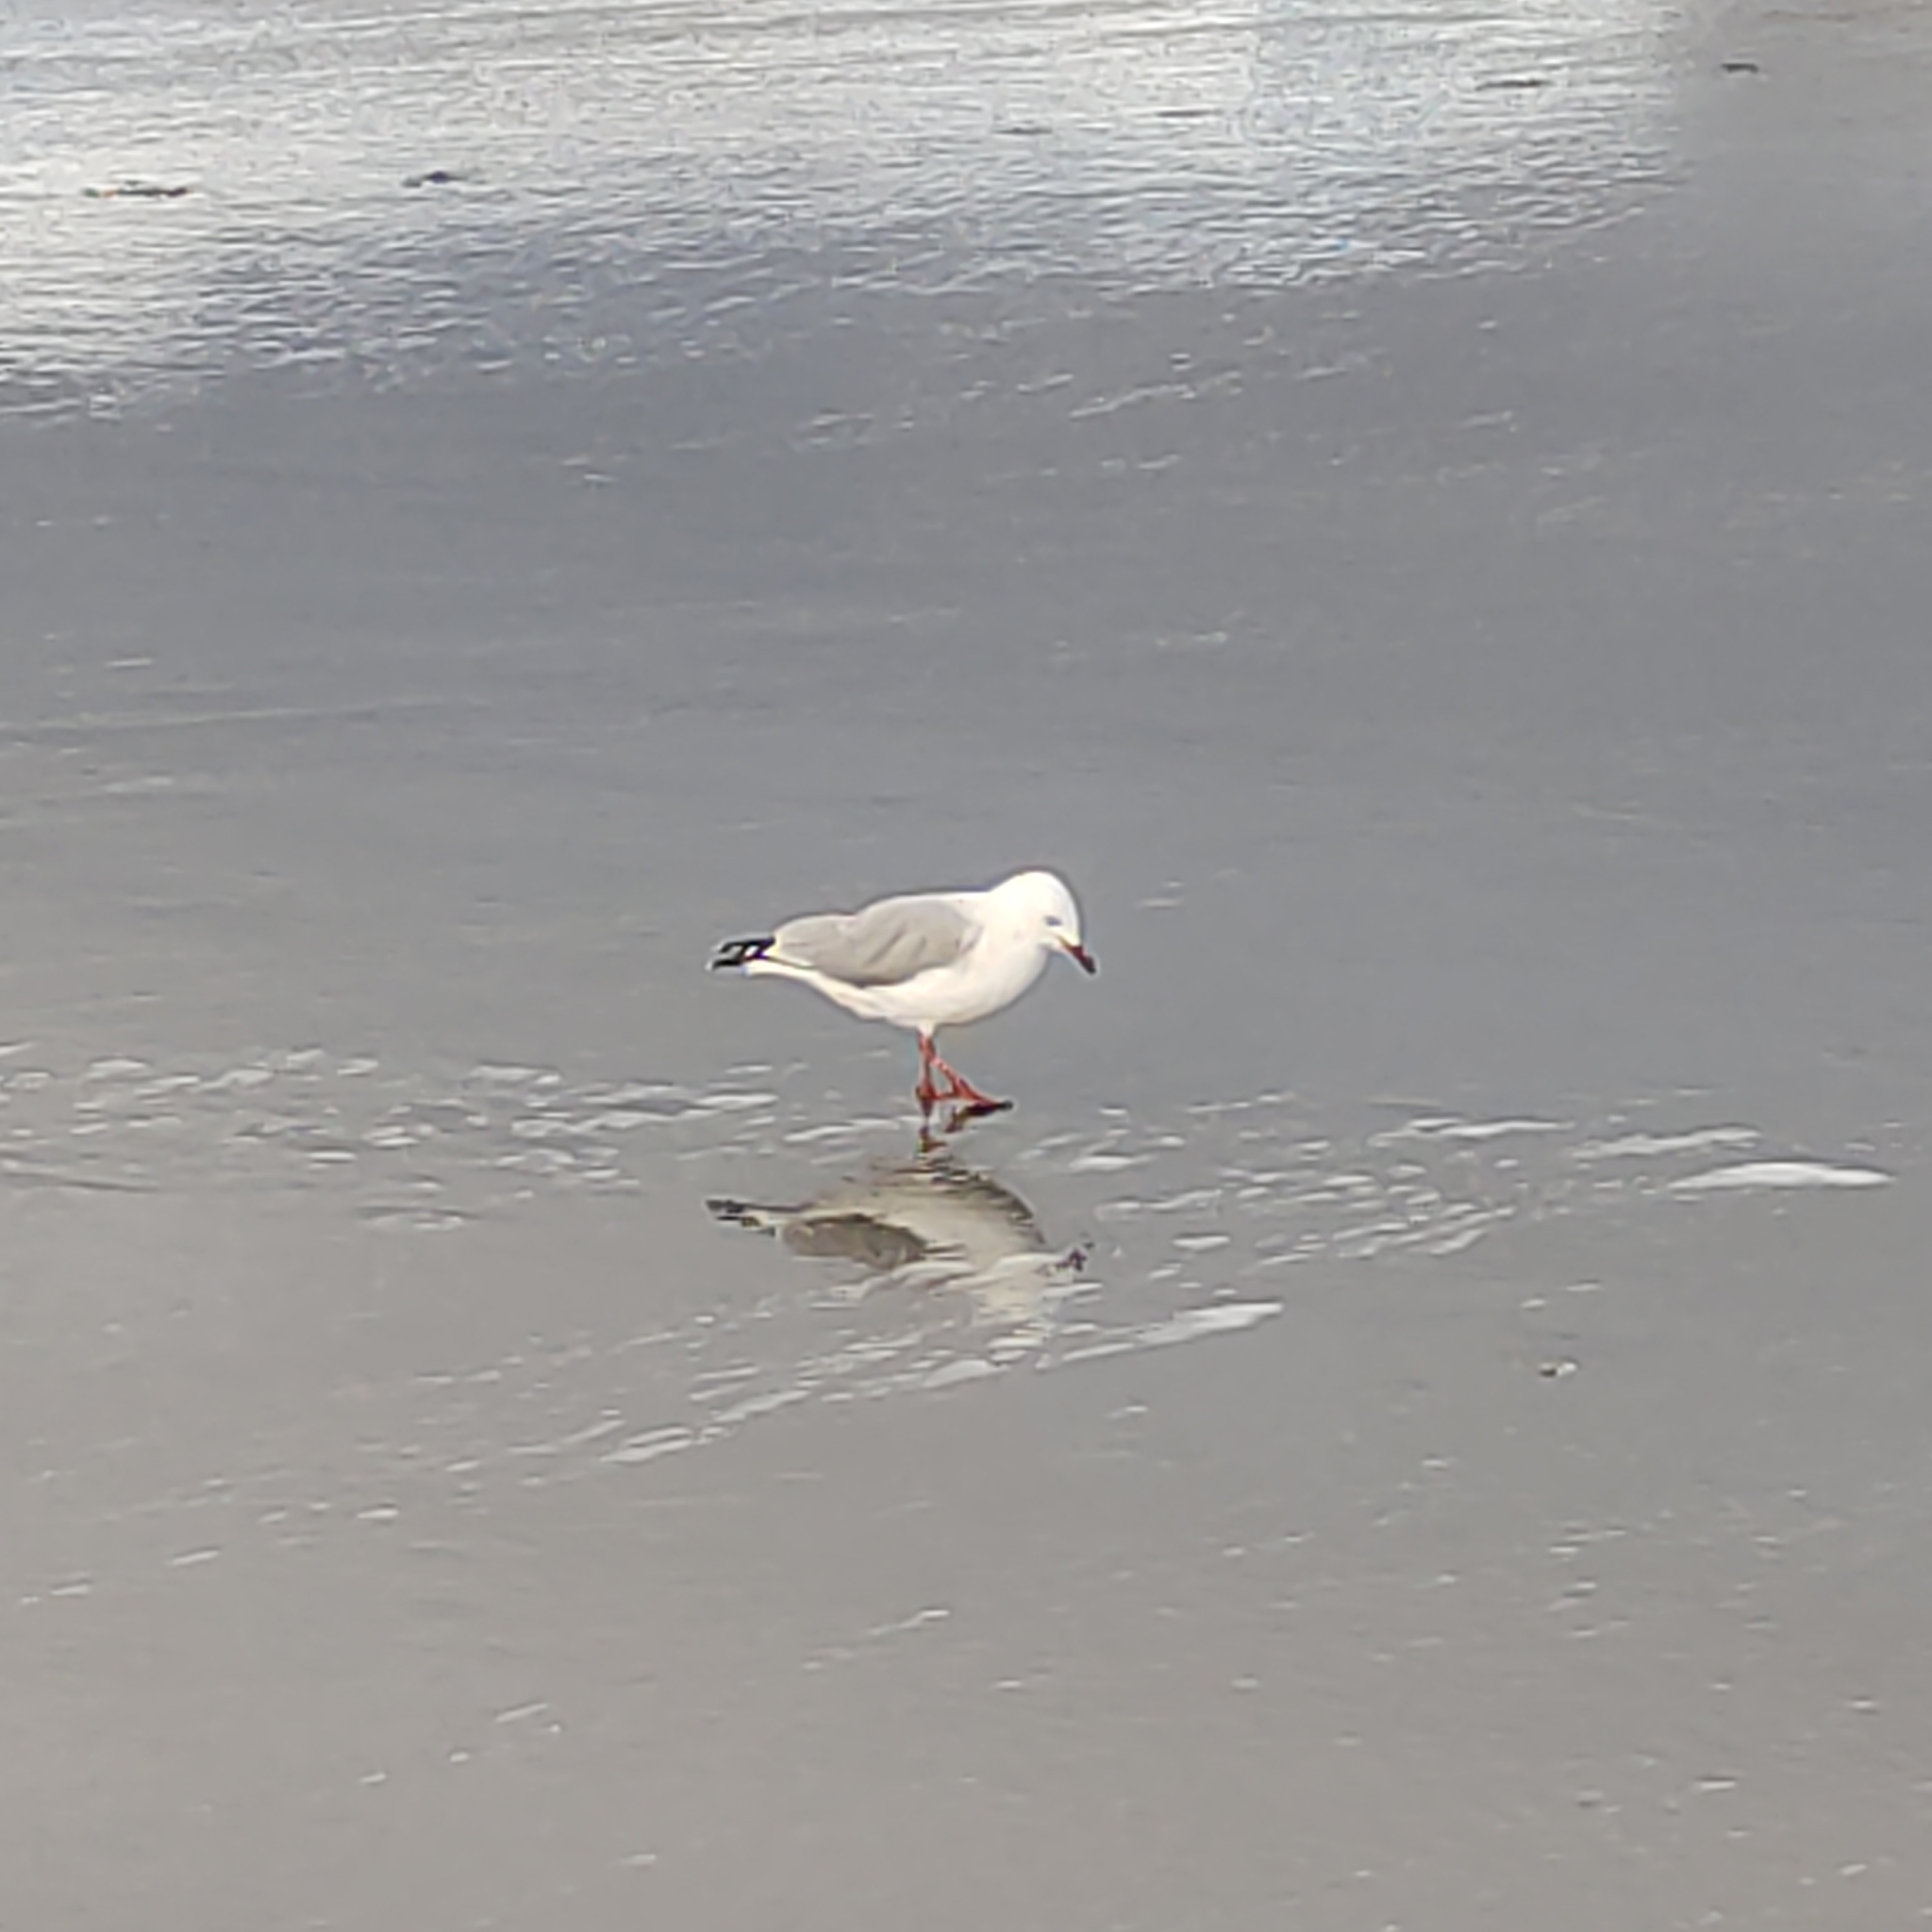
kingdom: Animalia
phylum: Chordata
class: Aves
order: Charadriiformes
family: Laridae
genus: Chroicocephalus
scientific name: Chroicocephalus bulleri
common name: Black-billed gull
